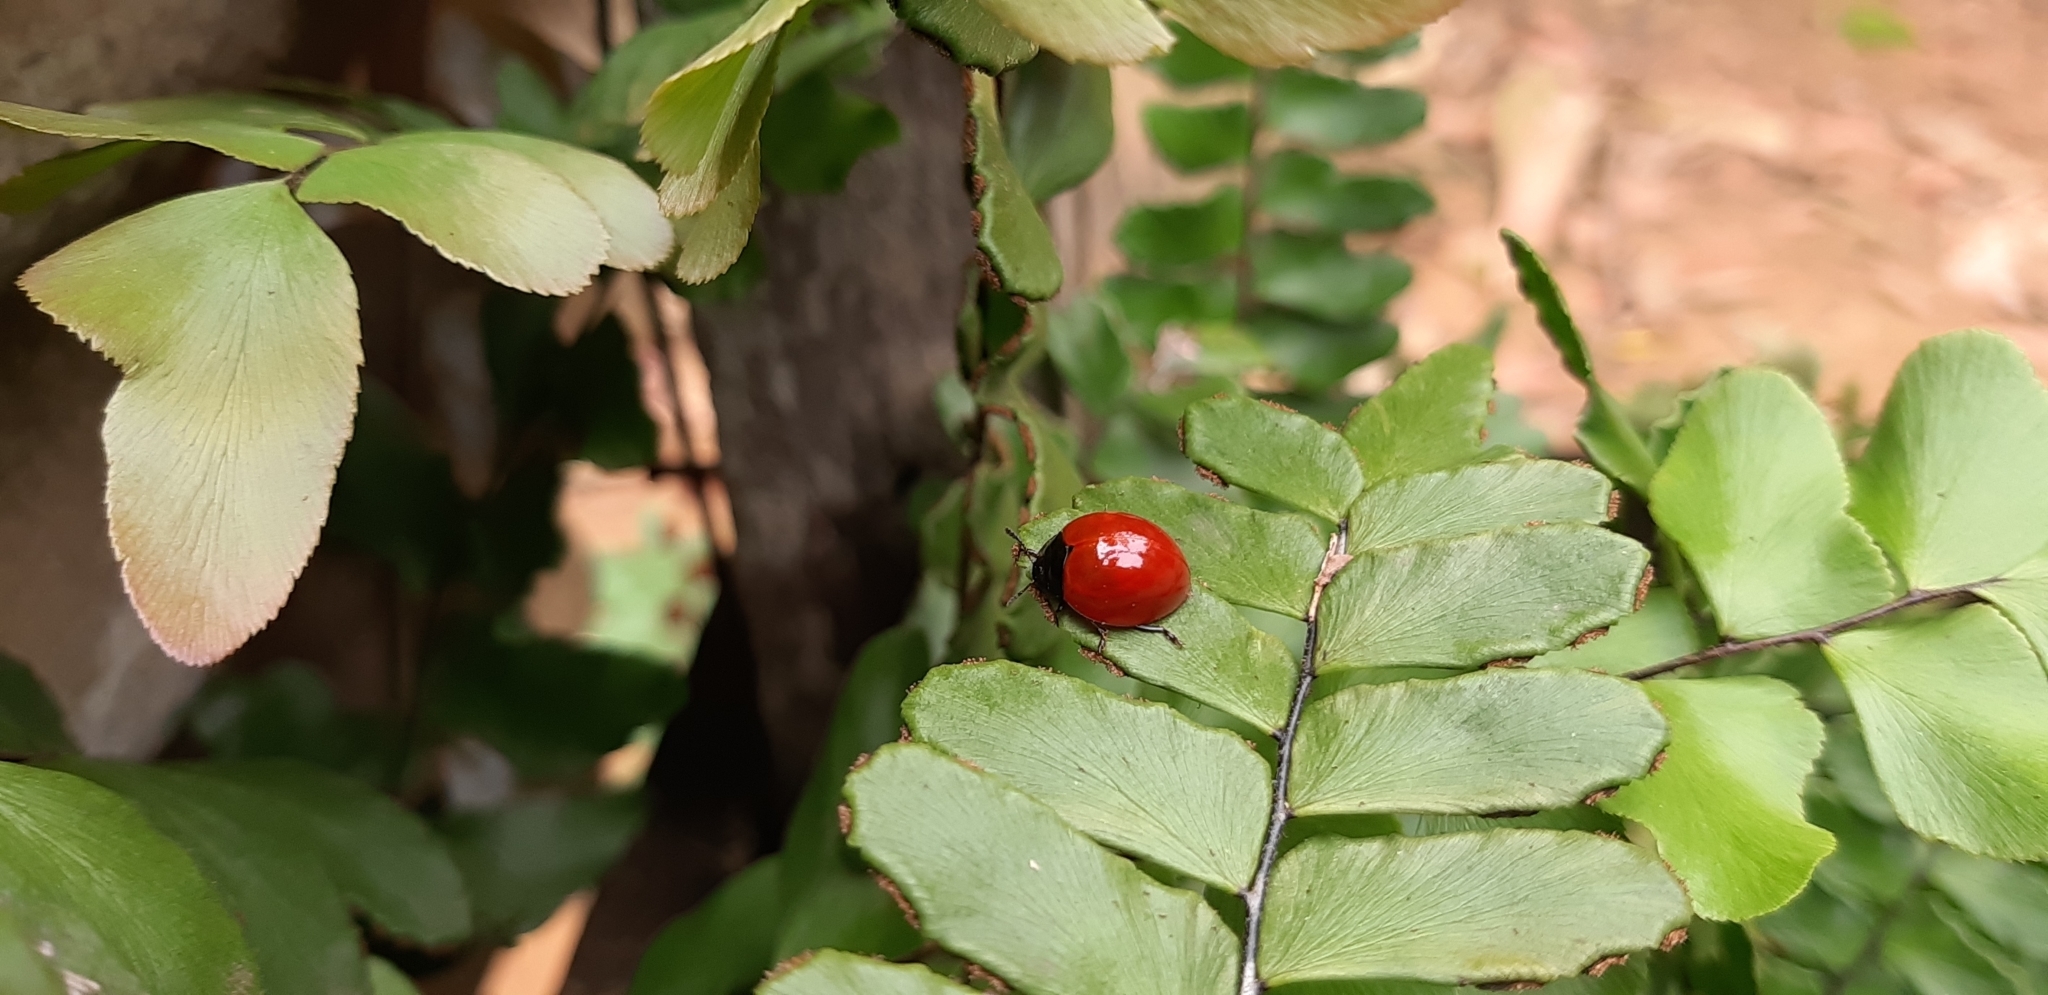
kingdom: Animalia
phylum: Arthropoda
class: Insecta
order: Coleoptera
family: Erotylidae
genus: Aegithus
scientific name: Aegithus clavicornis
